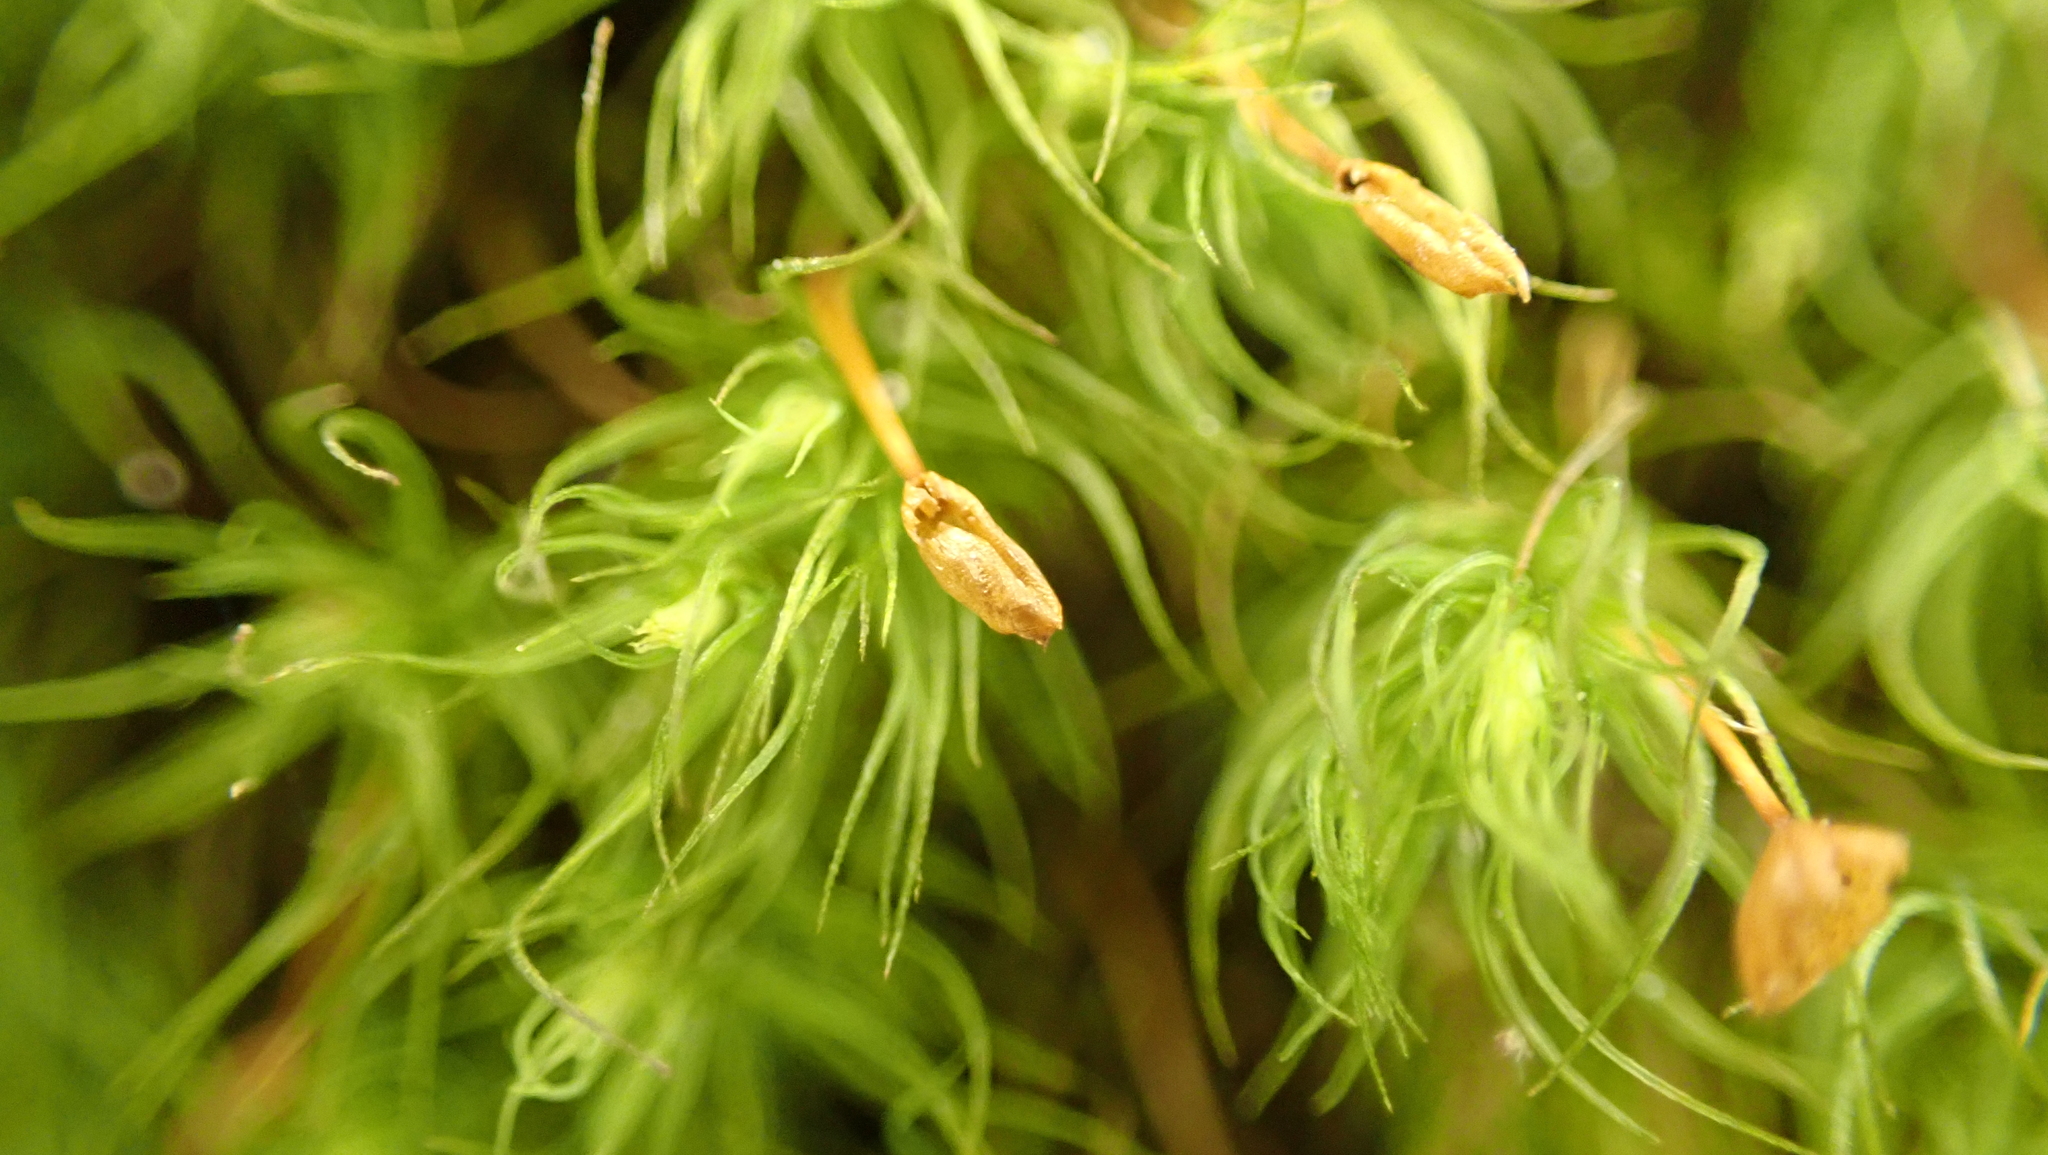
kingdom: Plantae
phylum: Bryophyta
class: Bryopsida
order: Bartramiales
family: Bartramiaceae
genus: Bartramia
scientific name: Bartramia ithyphylla
